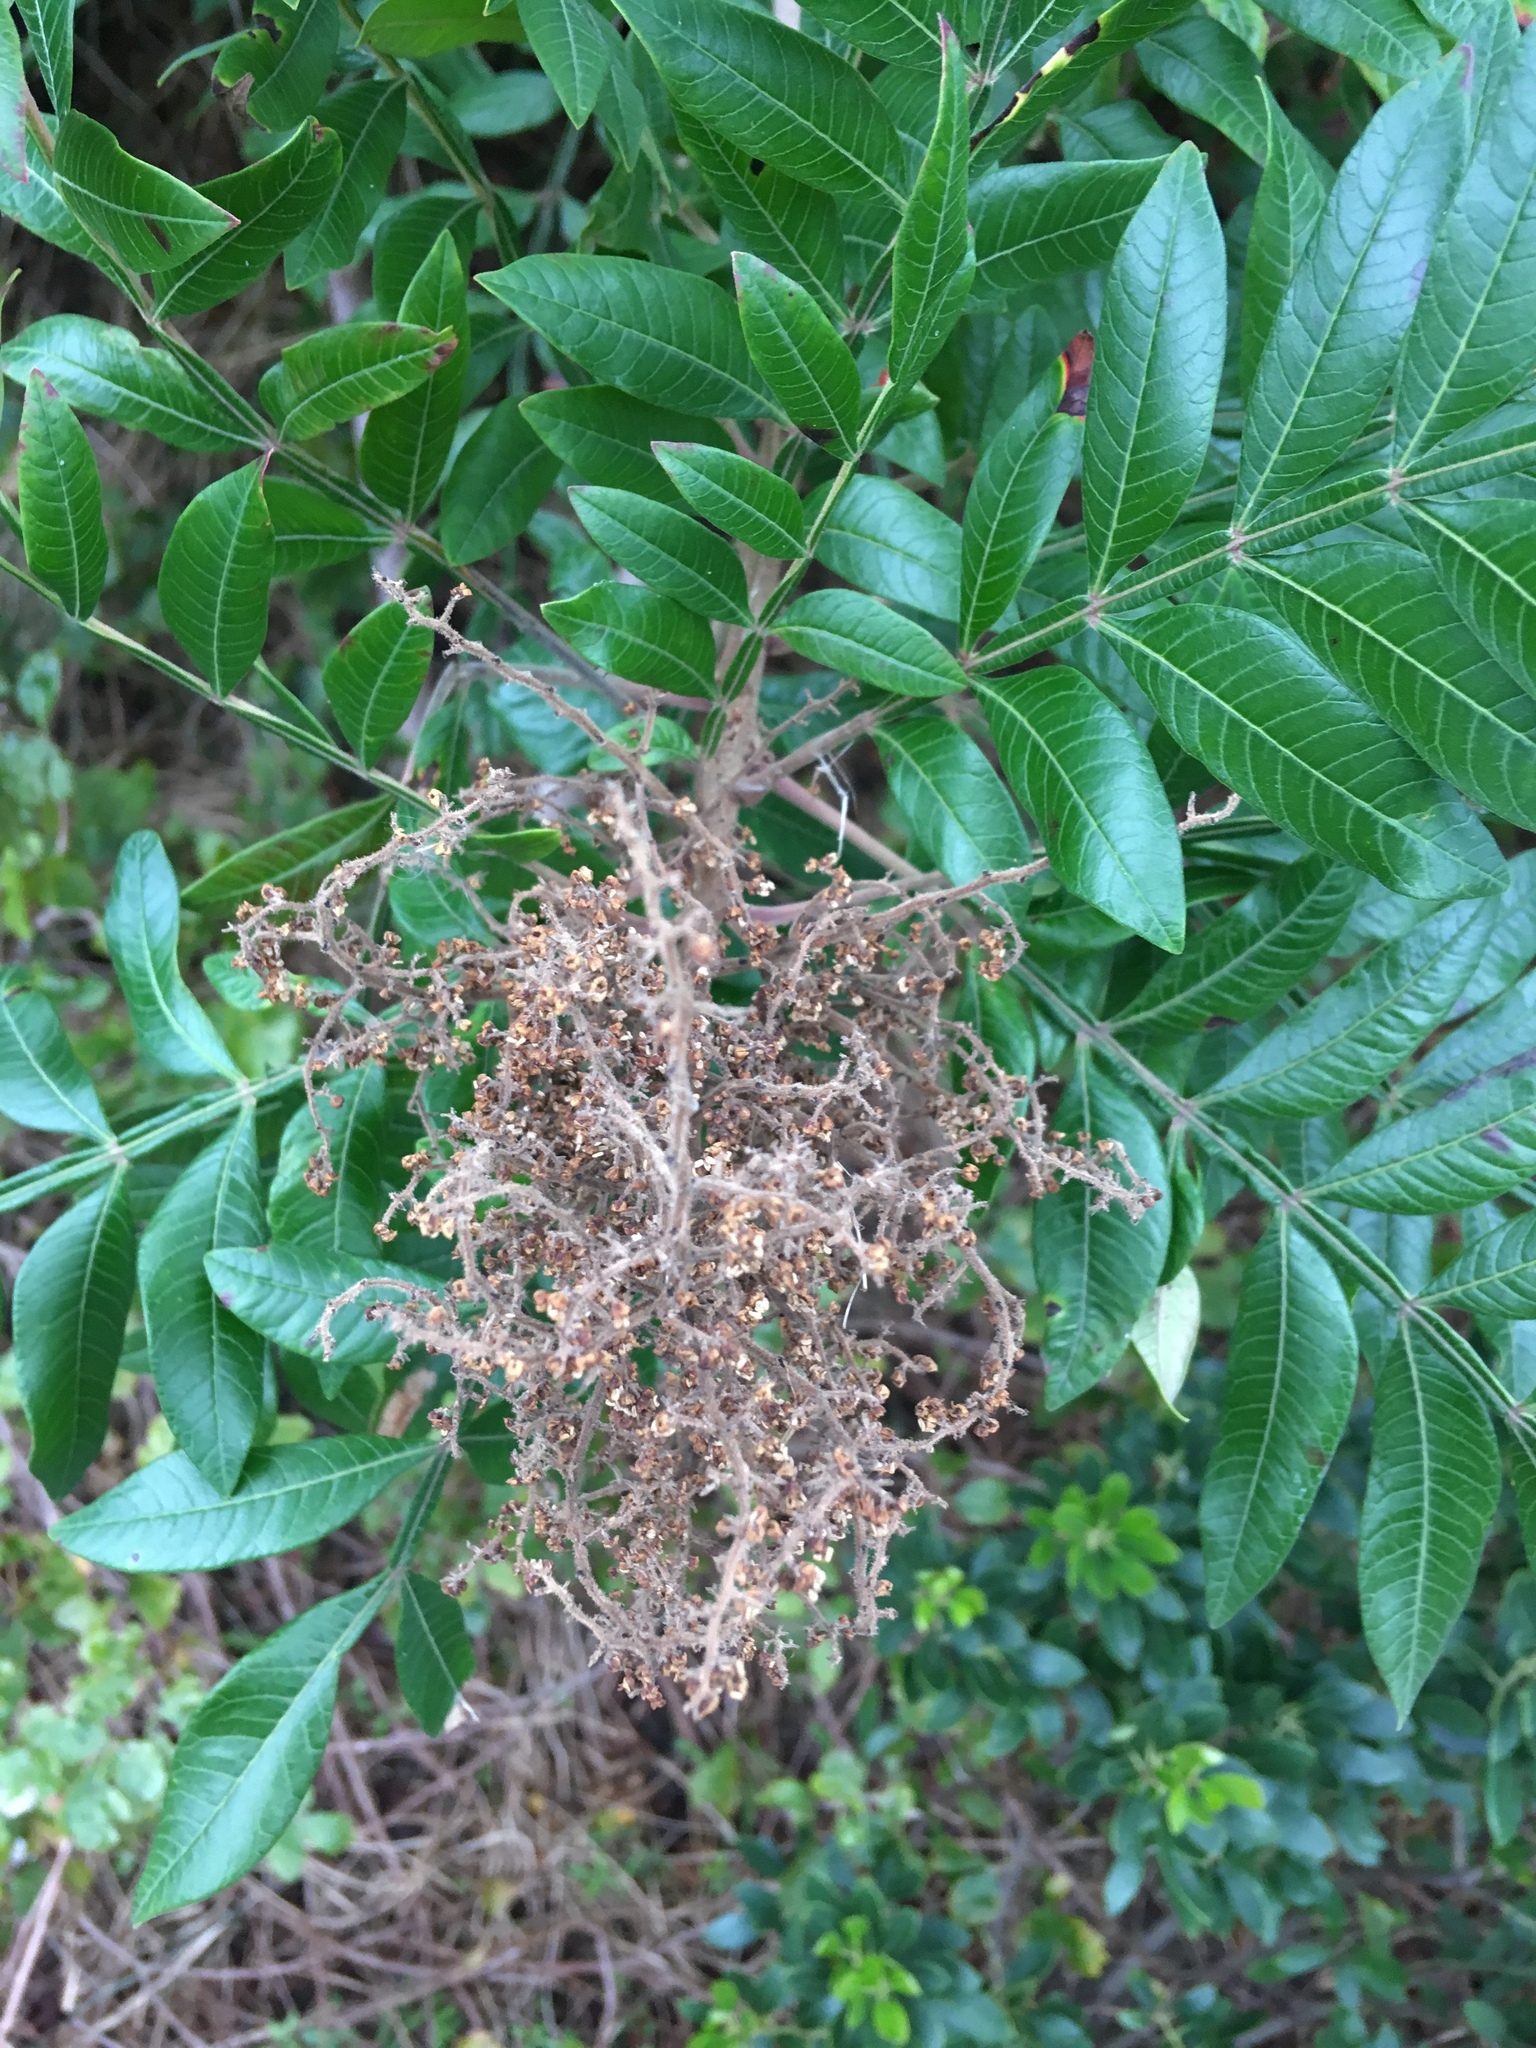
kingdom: Plantae
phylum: Tracheophyta
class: Magnoliopsida
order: Sapindales
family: Anacardiaceae
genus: Rhus
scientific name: Rhus copallina
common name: Shining sumac
